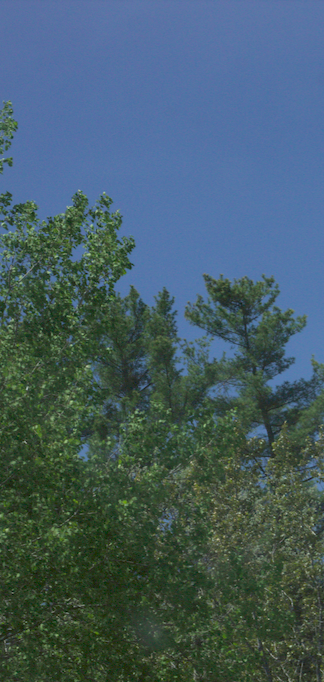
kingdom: Plantae
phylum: Tracheophyta
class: Pinopsida
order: Pinales
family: Pinaceae
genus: Pinus
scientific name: Pinus strobus
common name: Weymouth pine
